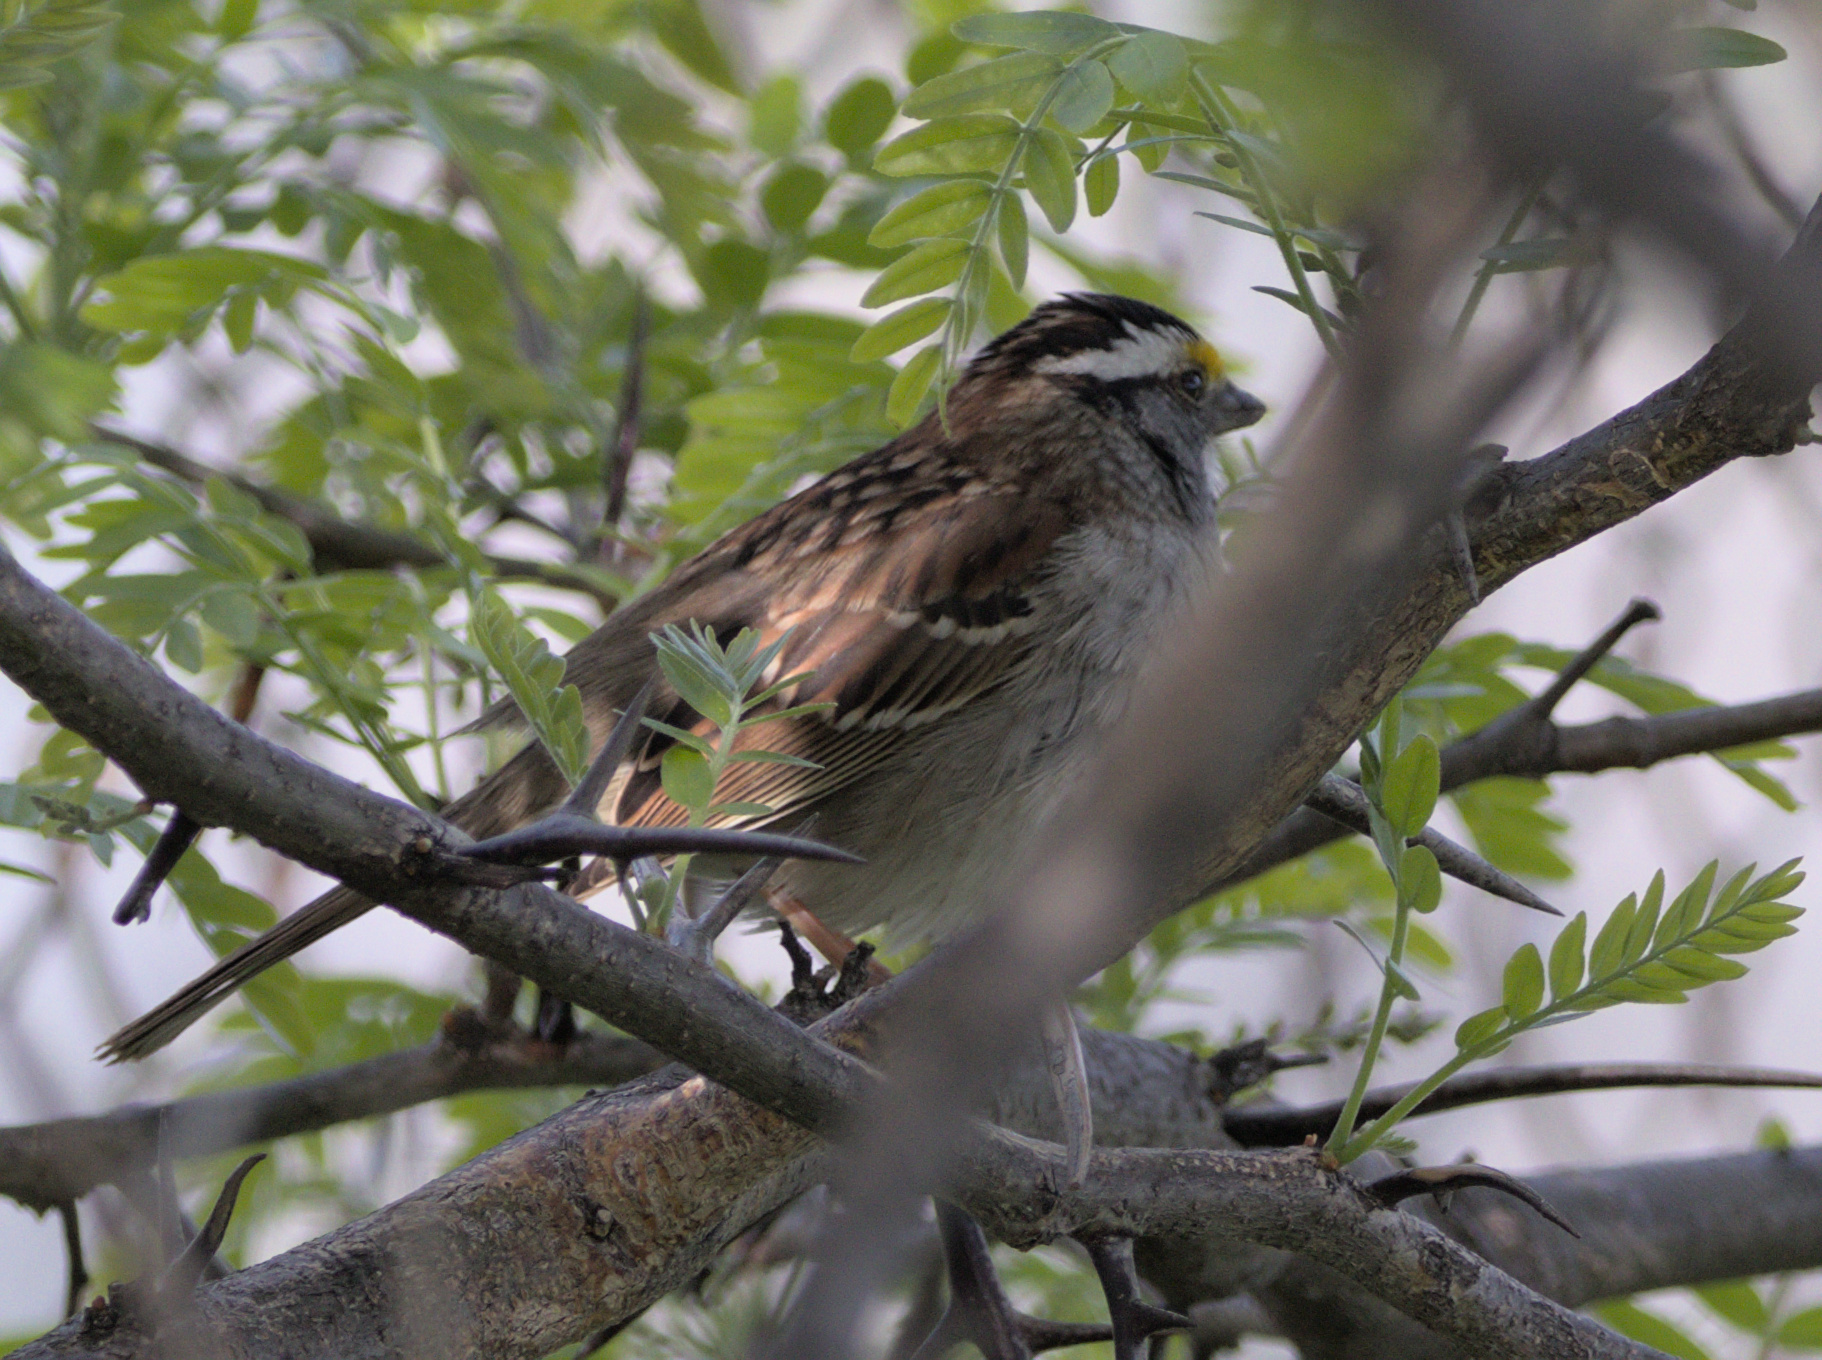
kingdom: Animalia
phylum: Chordata
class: Aves
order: Passeriformes
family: Passerellidae
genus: Zonotrichia
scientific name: Zonotrichia albicollis
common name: White-throated sparrow
